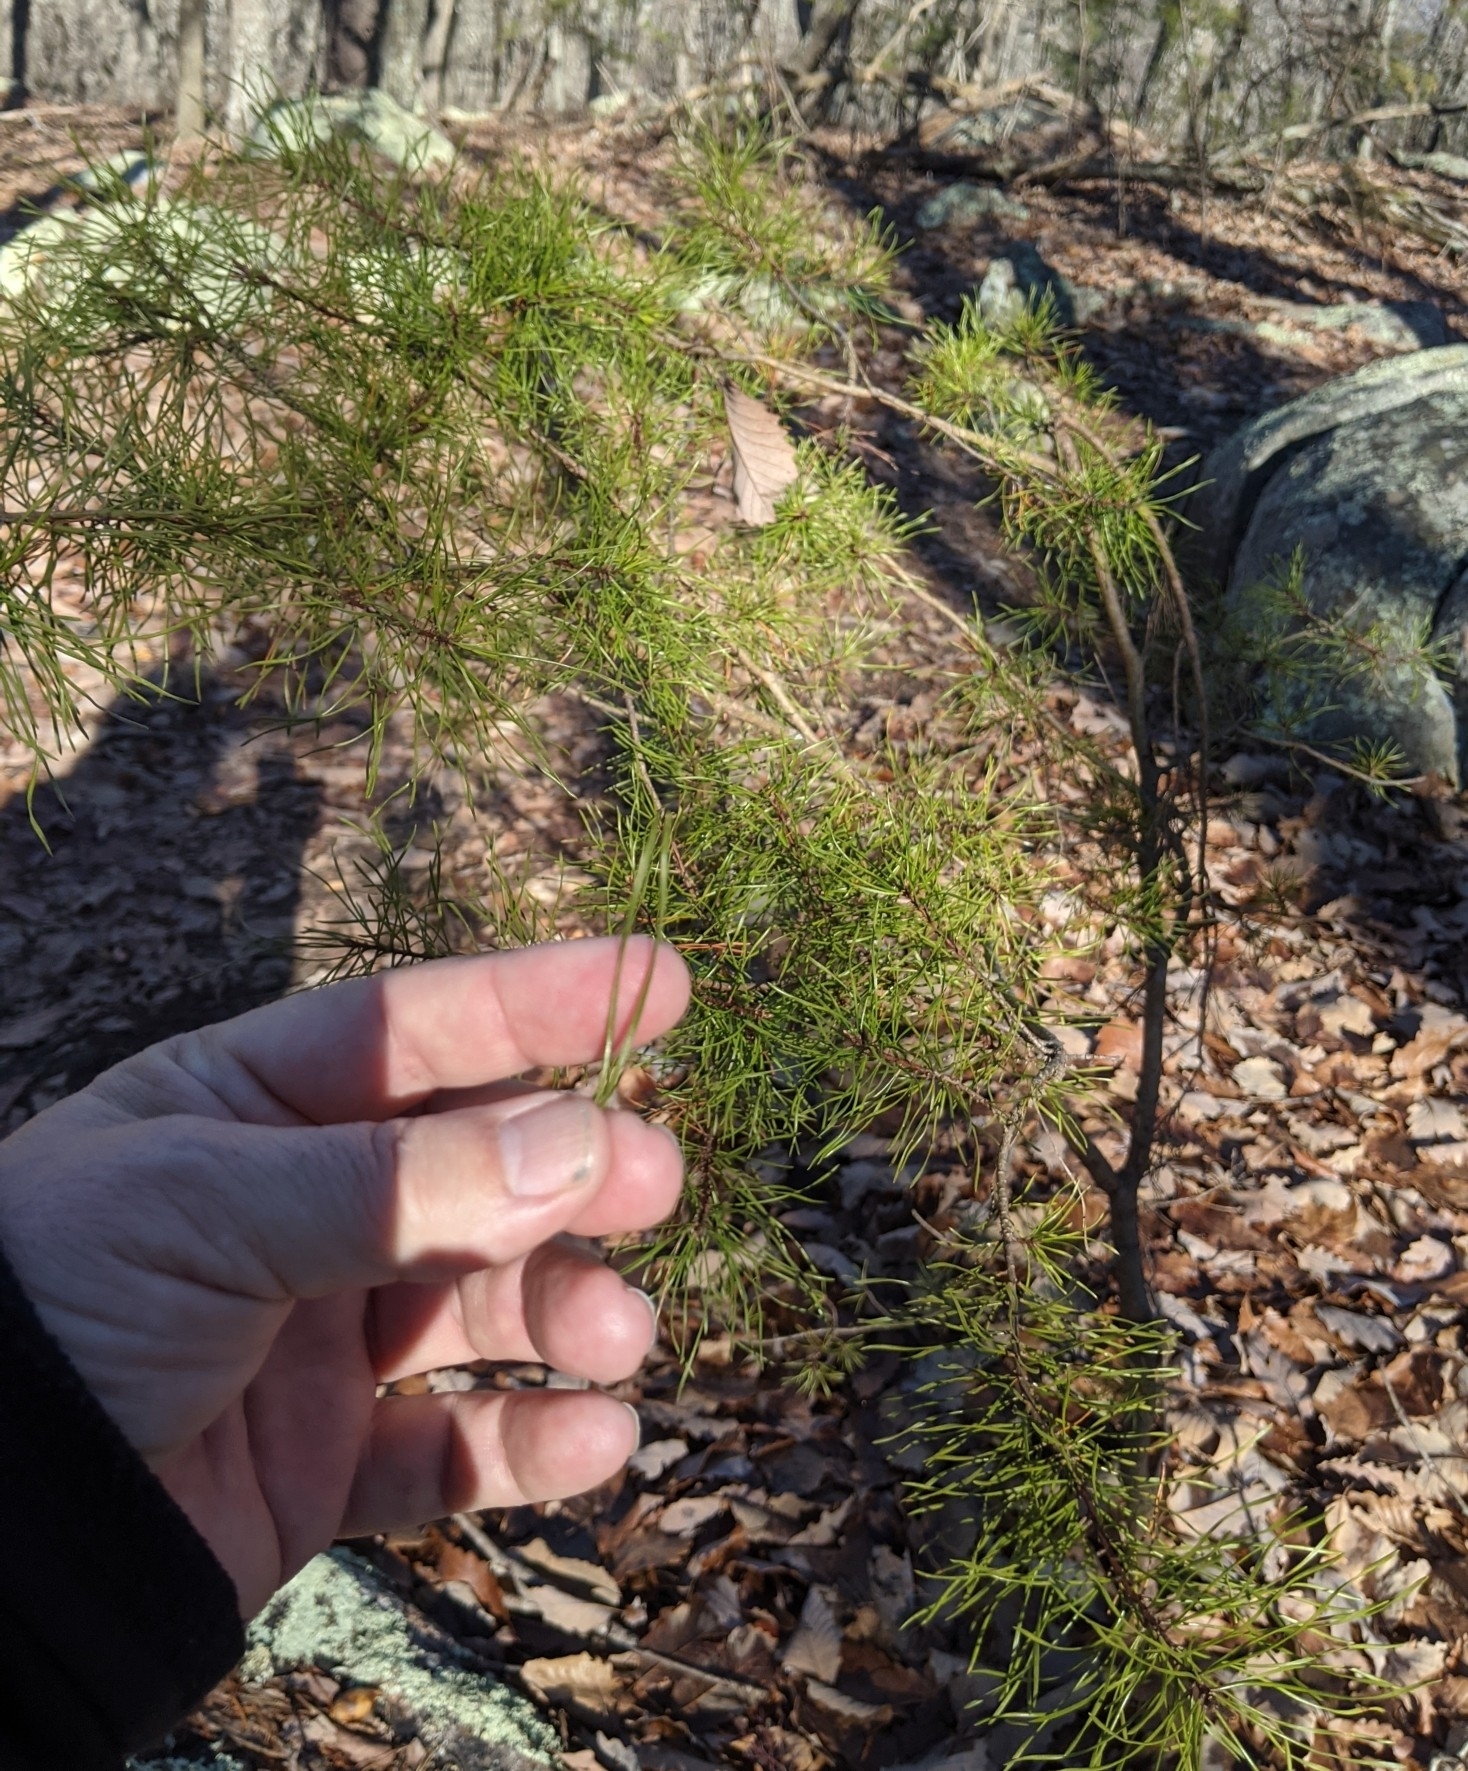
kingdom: Plantae
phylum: Tracheophyta
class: Pinopsida
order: Pinales
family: Pinaceae
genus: Pinus
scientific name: Pinus virginiana
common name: Scrub pine
